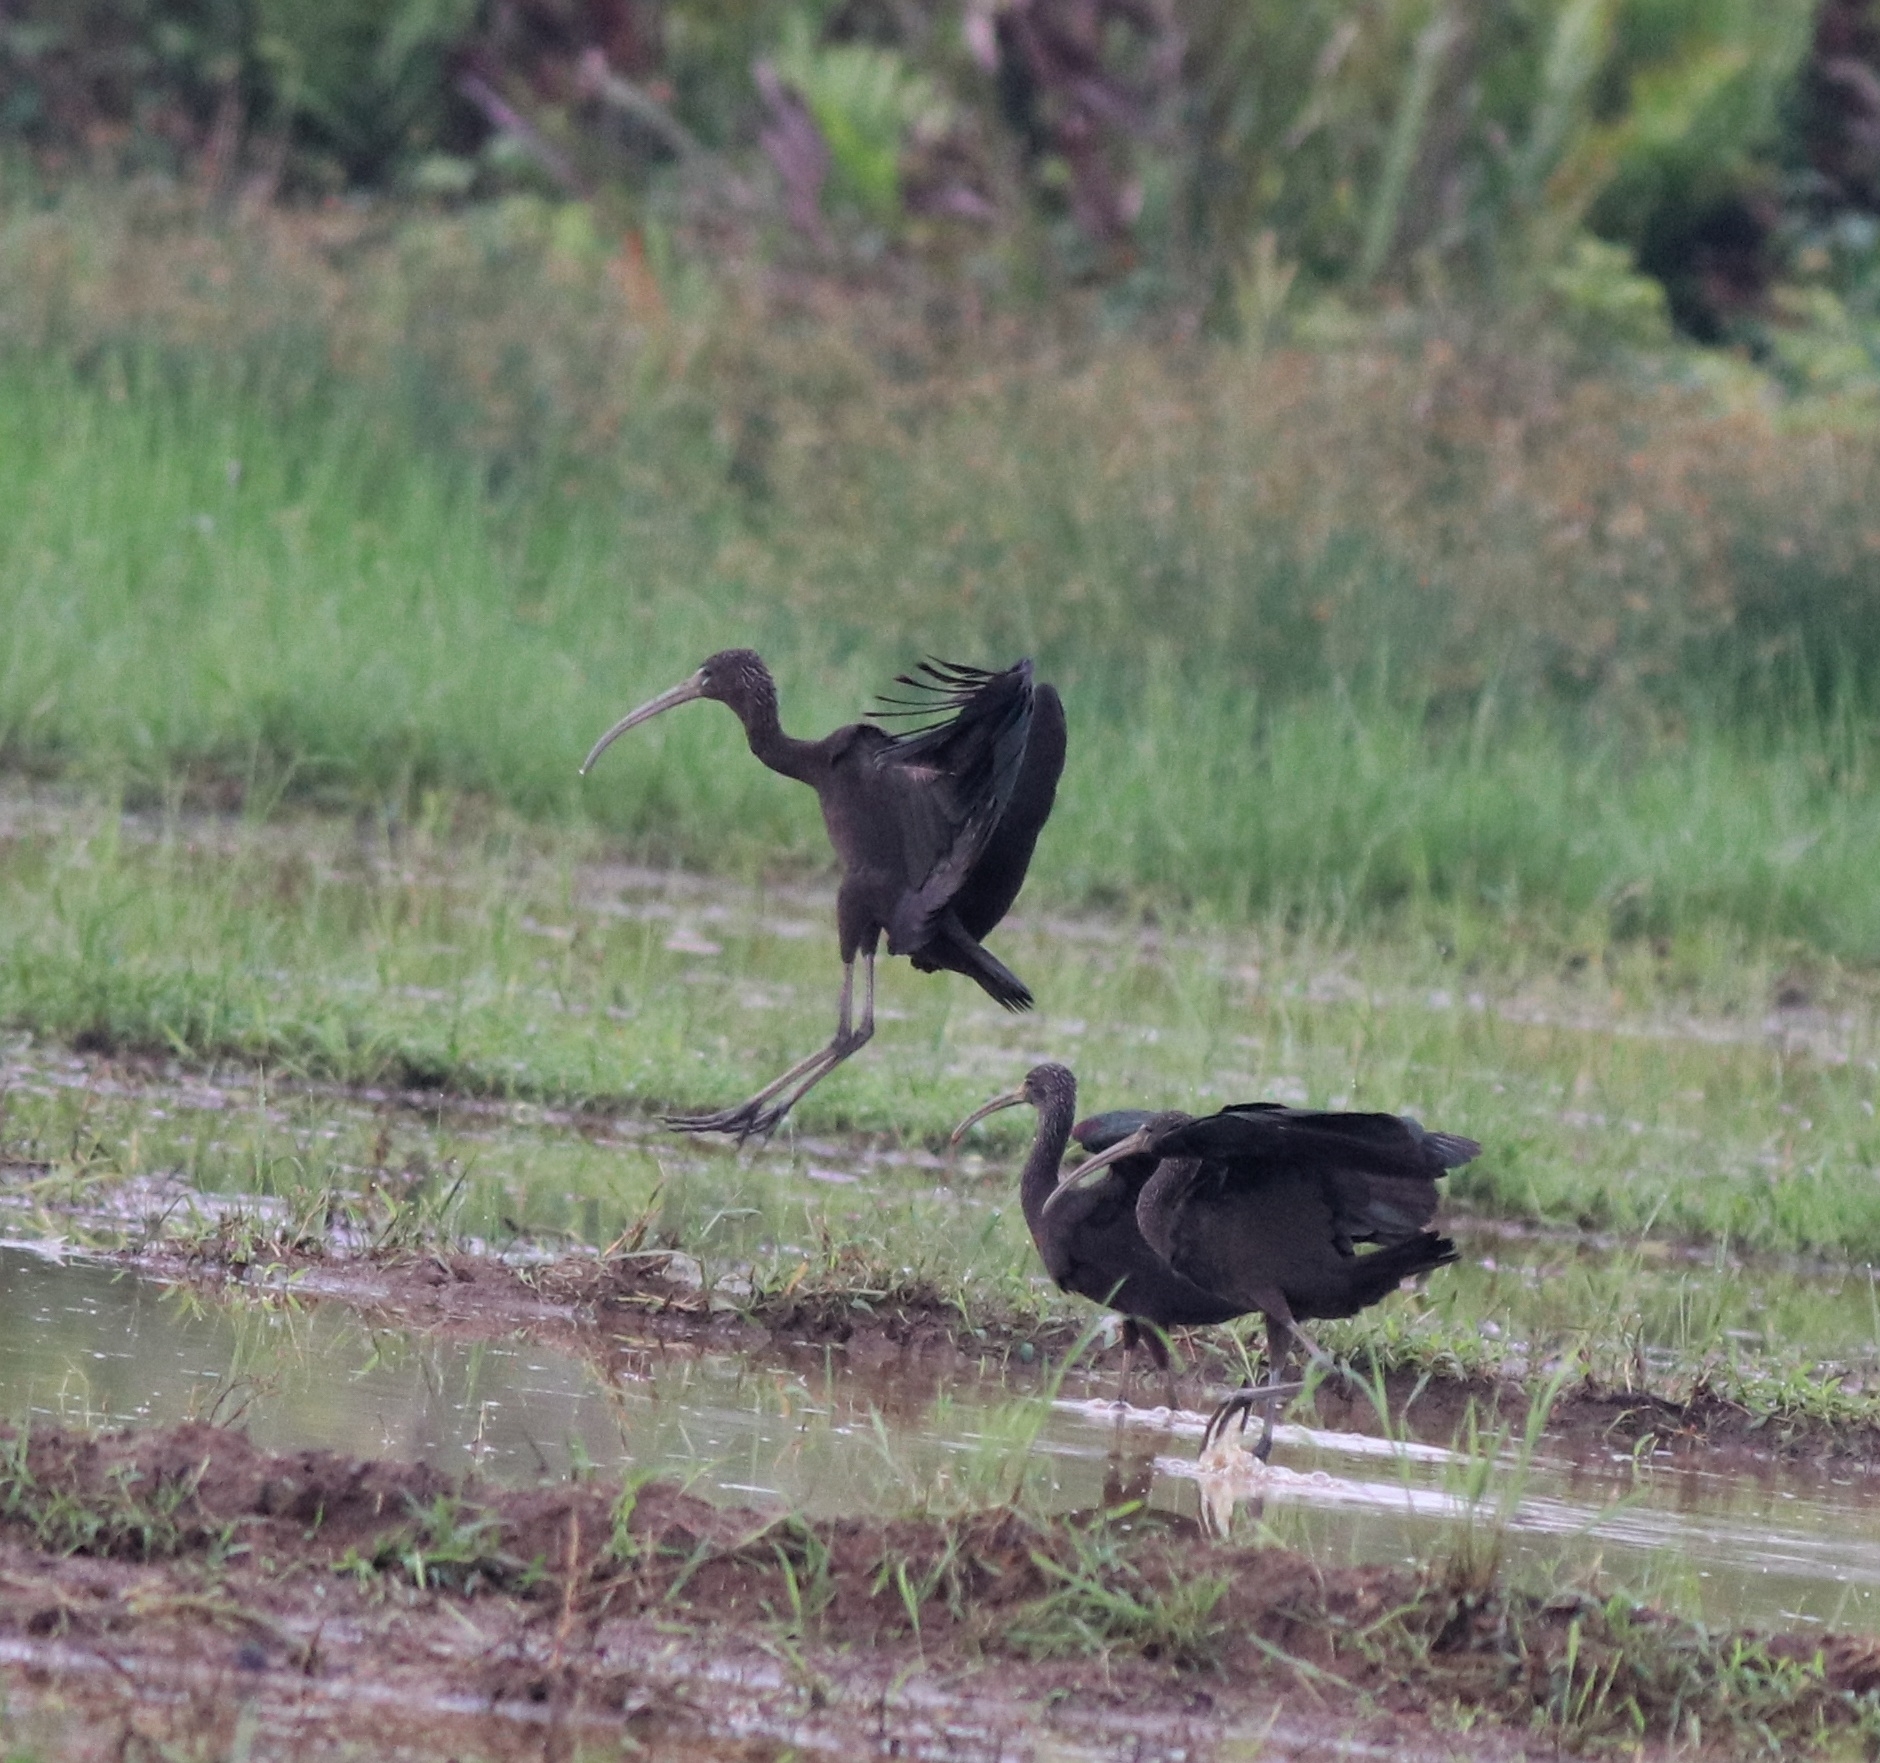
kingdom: Animalia
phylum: Chordata
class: Aves
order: Pelecaniformes
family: Threskiornithidae
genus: Plegadis
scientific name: Plegadis falcinellus
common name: Glossy ibis
